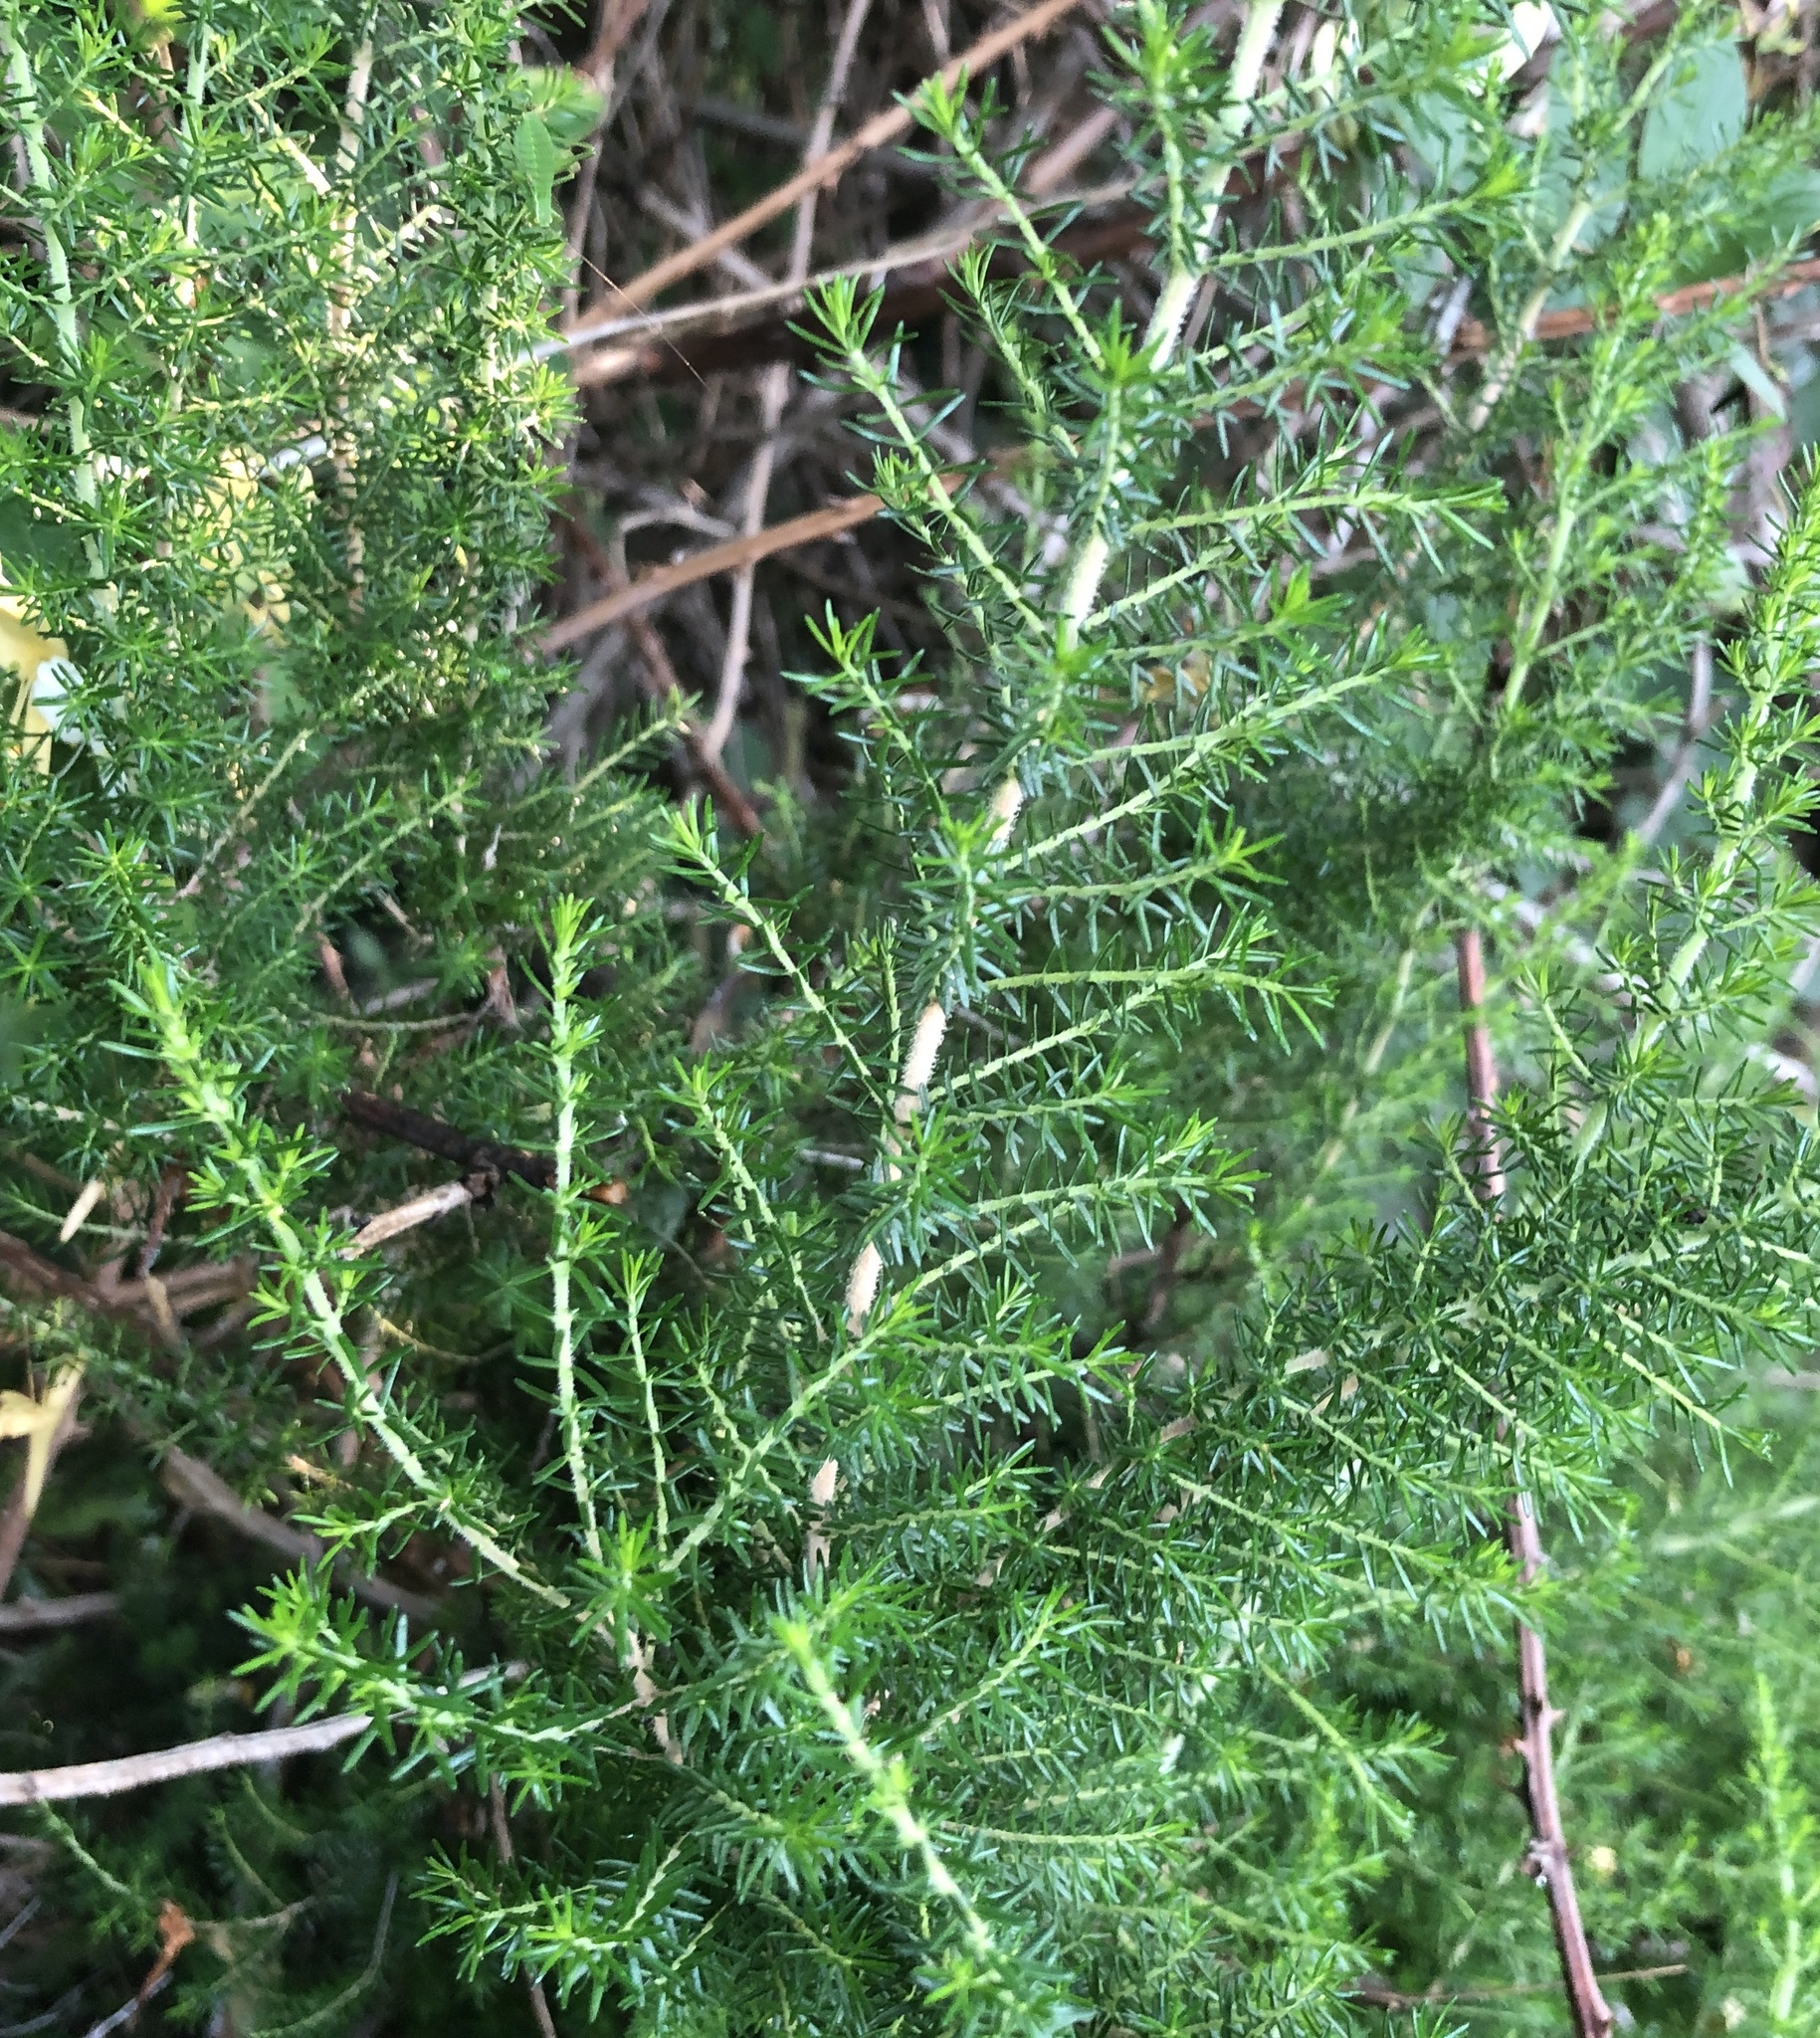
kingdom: Plantae
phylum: Tracheophyta
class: Magnoliopsida
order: Ericales
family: Ericaceae
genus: Erica
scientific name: Erica arborea
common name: Tree heath
